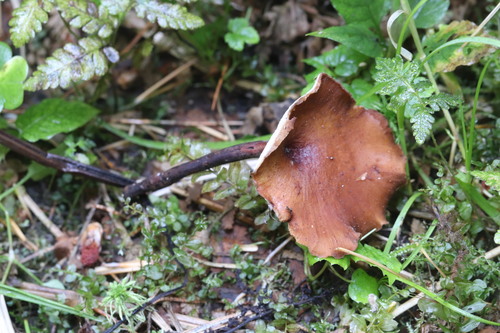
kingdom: Fungi
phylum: Basidiomycota
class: Agaricomycetes
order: Polyporales
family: Polyporaceae
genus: Picipes
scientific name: Picipes melanopus
